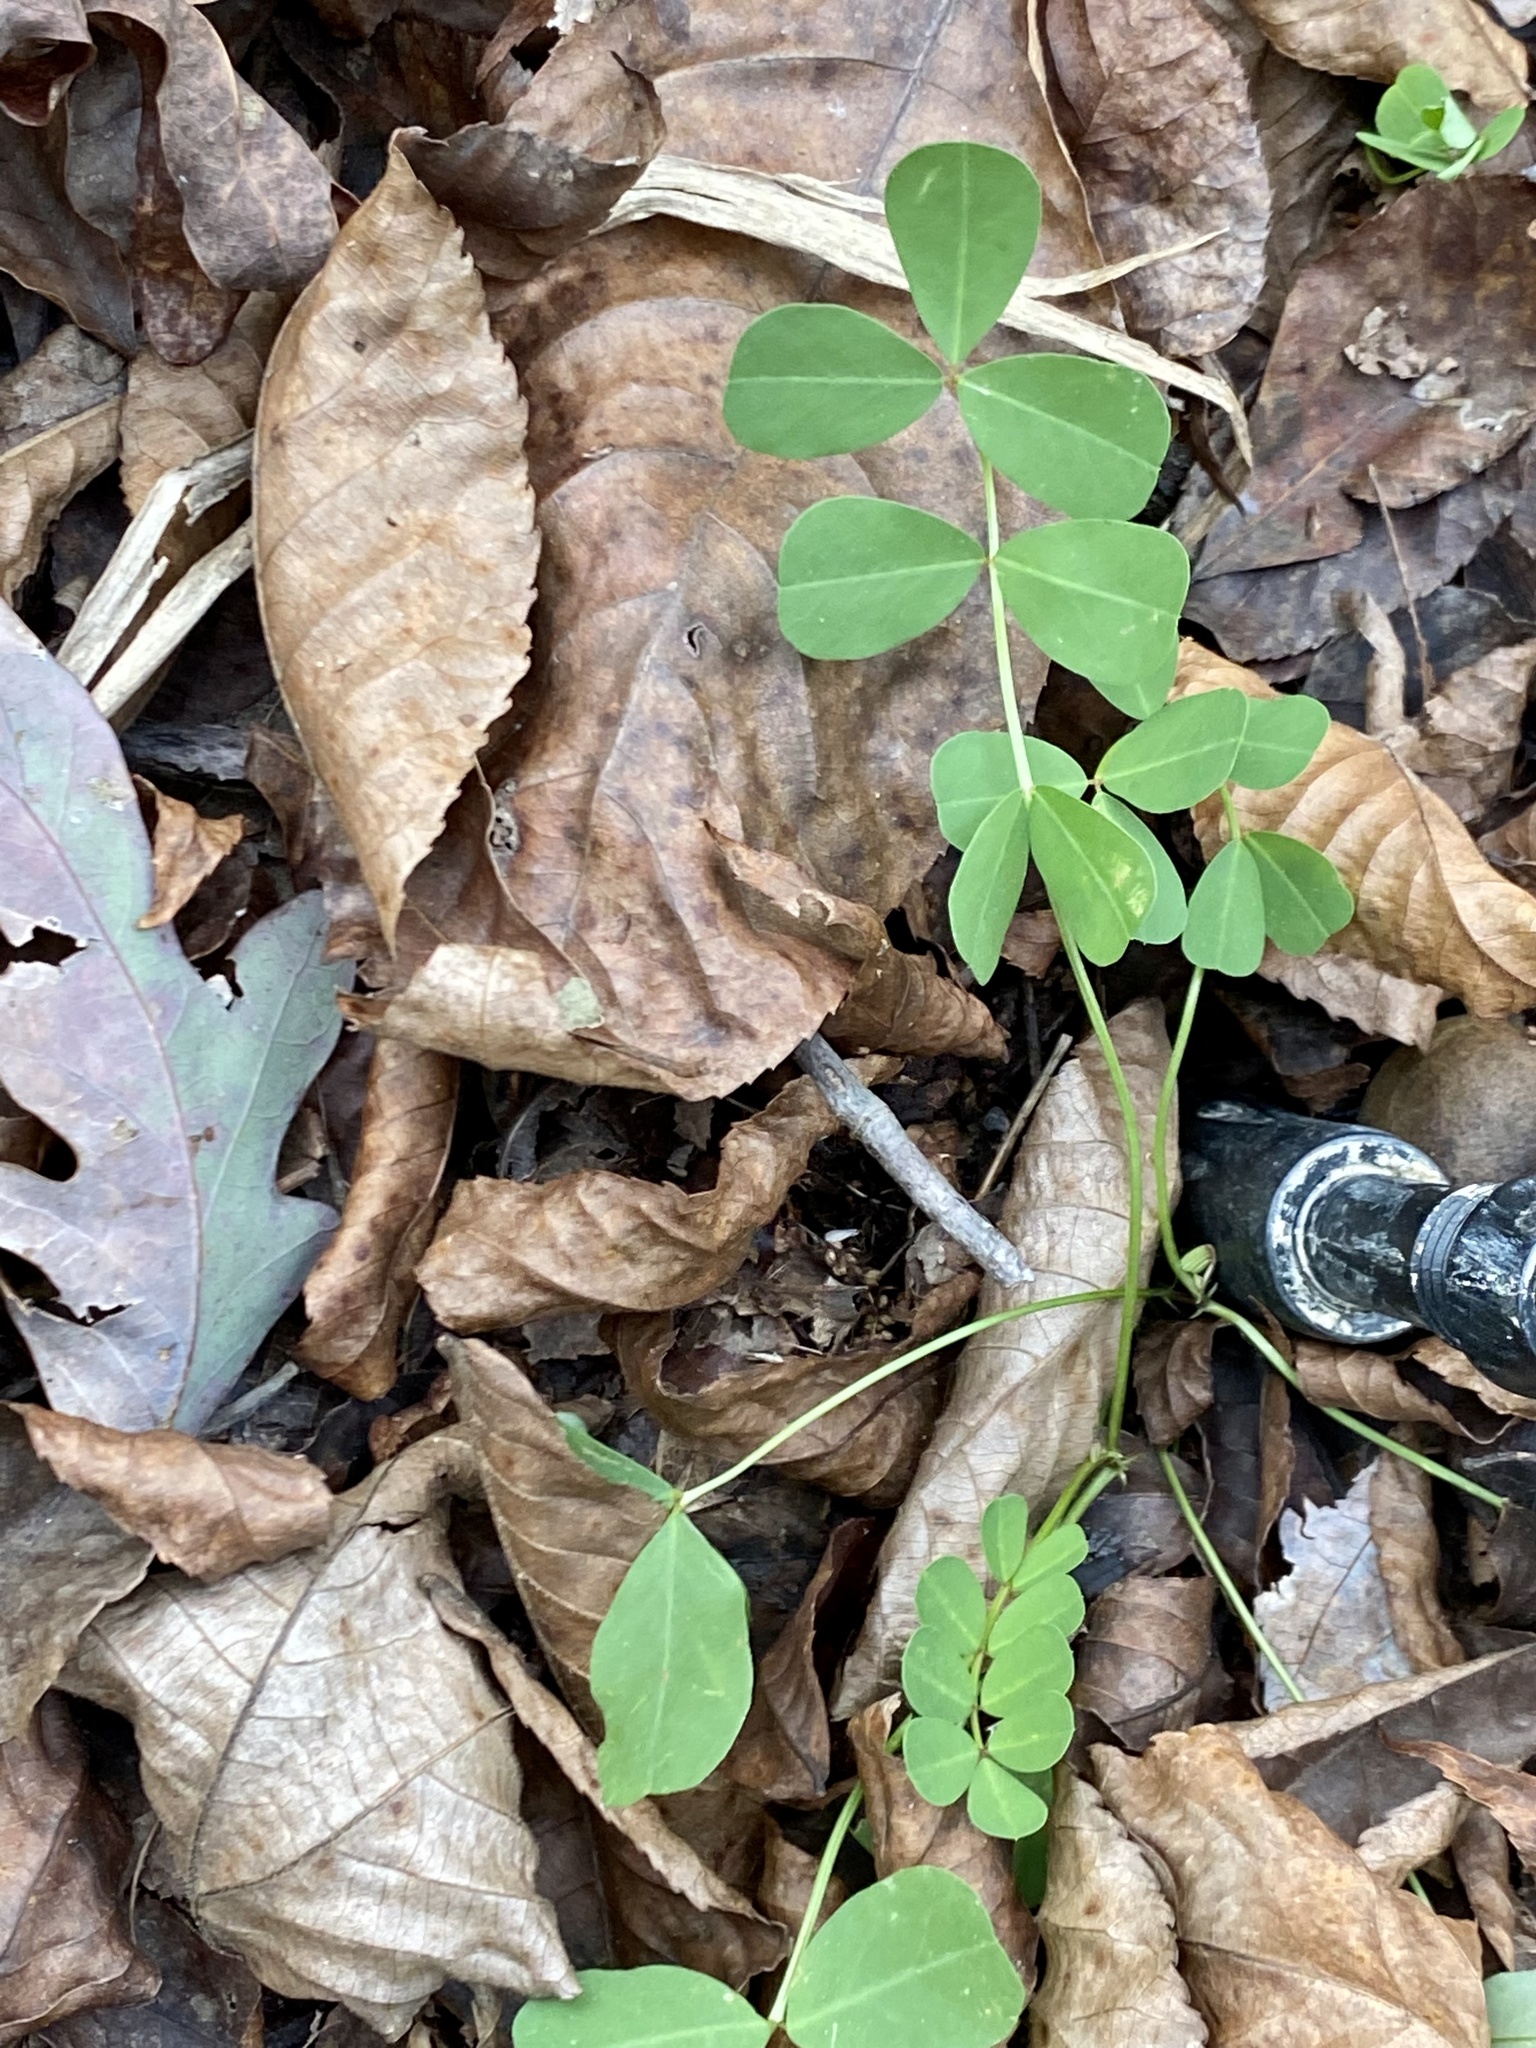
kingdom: Plantae
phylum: Tracheophyta
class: Magnoliopsida
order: Fabales
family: Fabaceae
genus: Coronilla
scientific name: Coronilla varia
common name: Crownvetch
